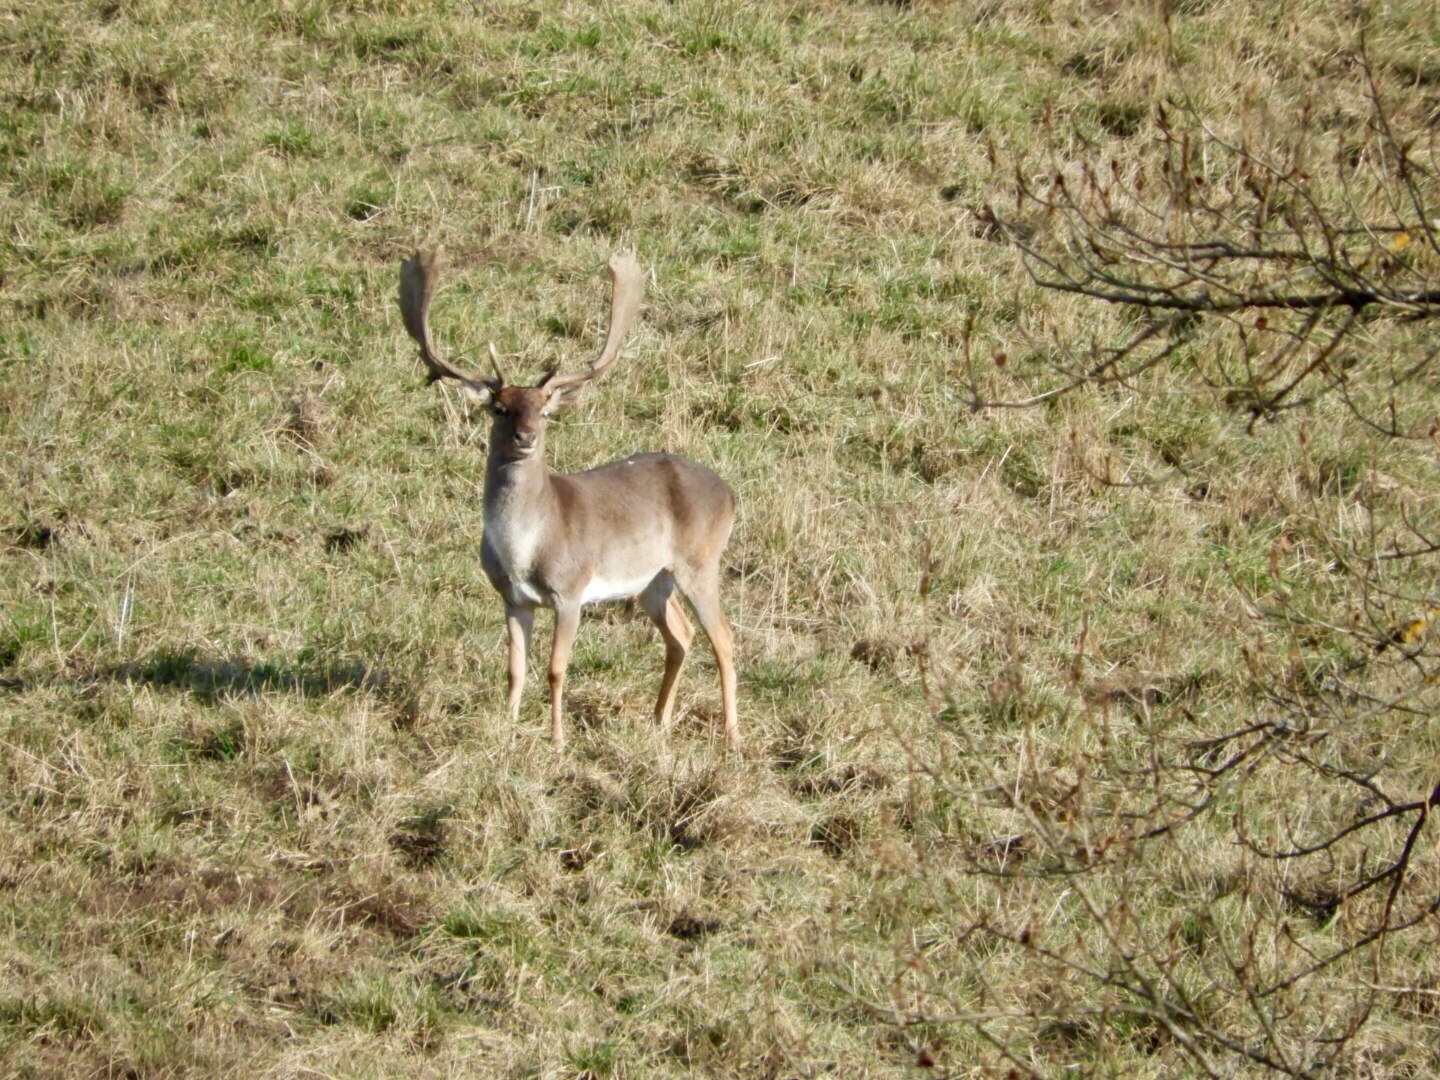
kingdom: Animalia
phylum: Chordata
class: Mammalia
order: Artiodactyla
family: Cervidae
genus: Dama
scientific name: Dama dama
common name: Fallow deer
